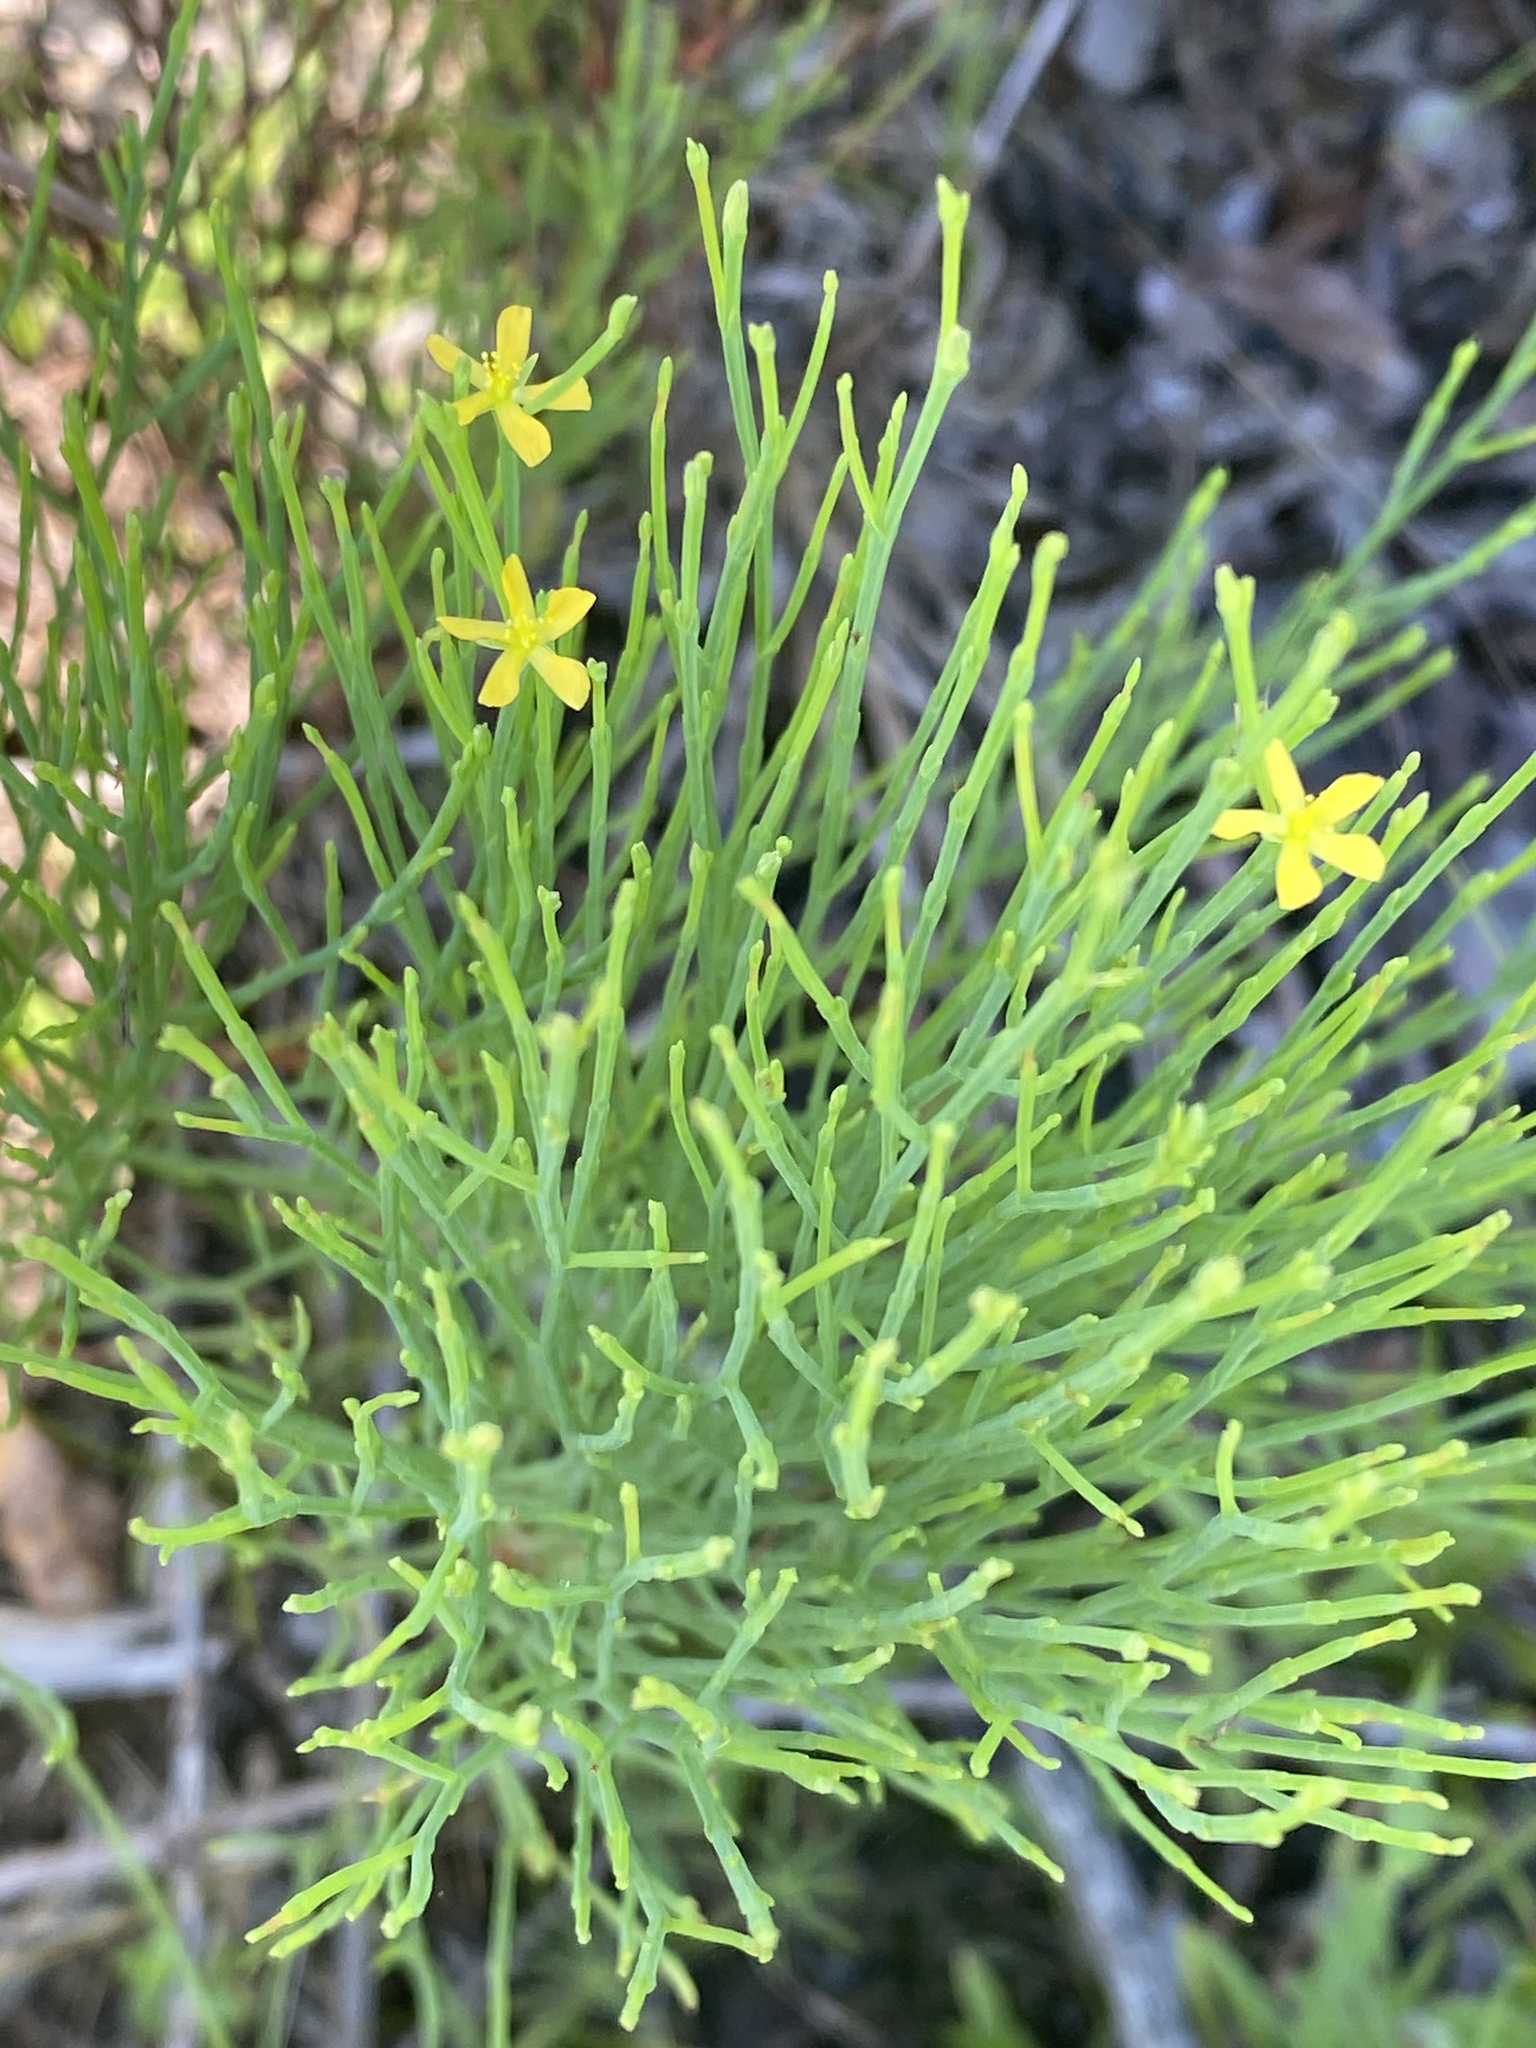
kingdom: Plantae
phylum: Tracheophyta
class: Magnoliopsida
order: Malpighiales
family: Hypericaceae
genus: Hypericum
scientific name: Hypericum gentianoides
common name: Gentian-leaved st. john's-wort
